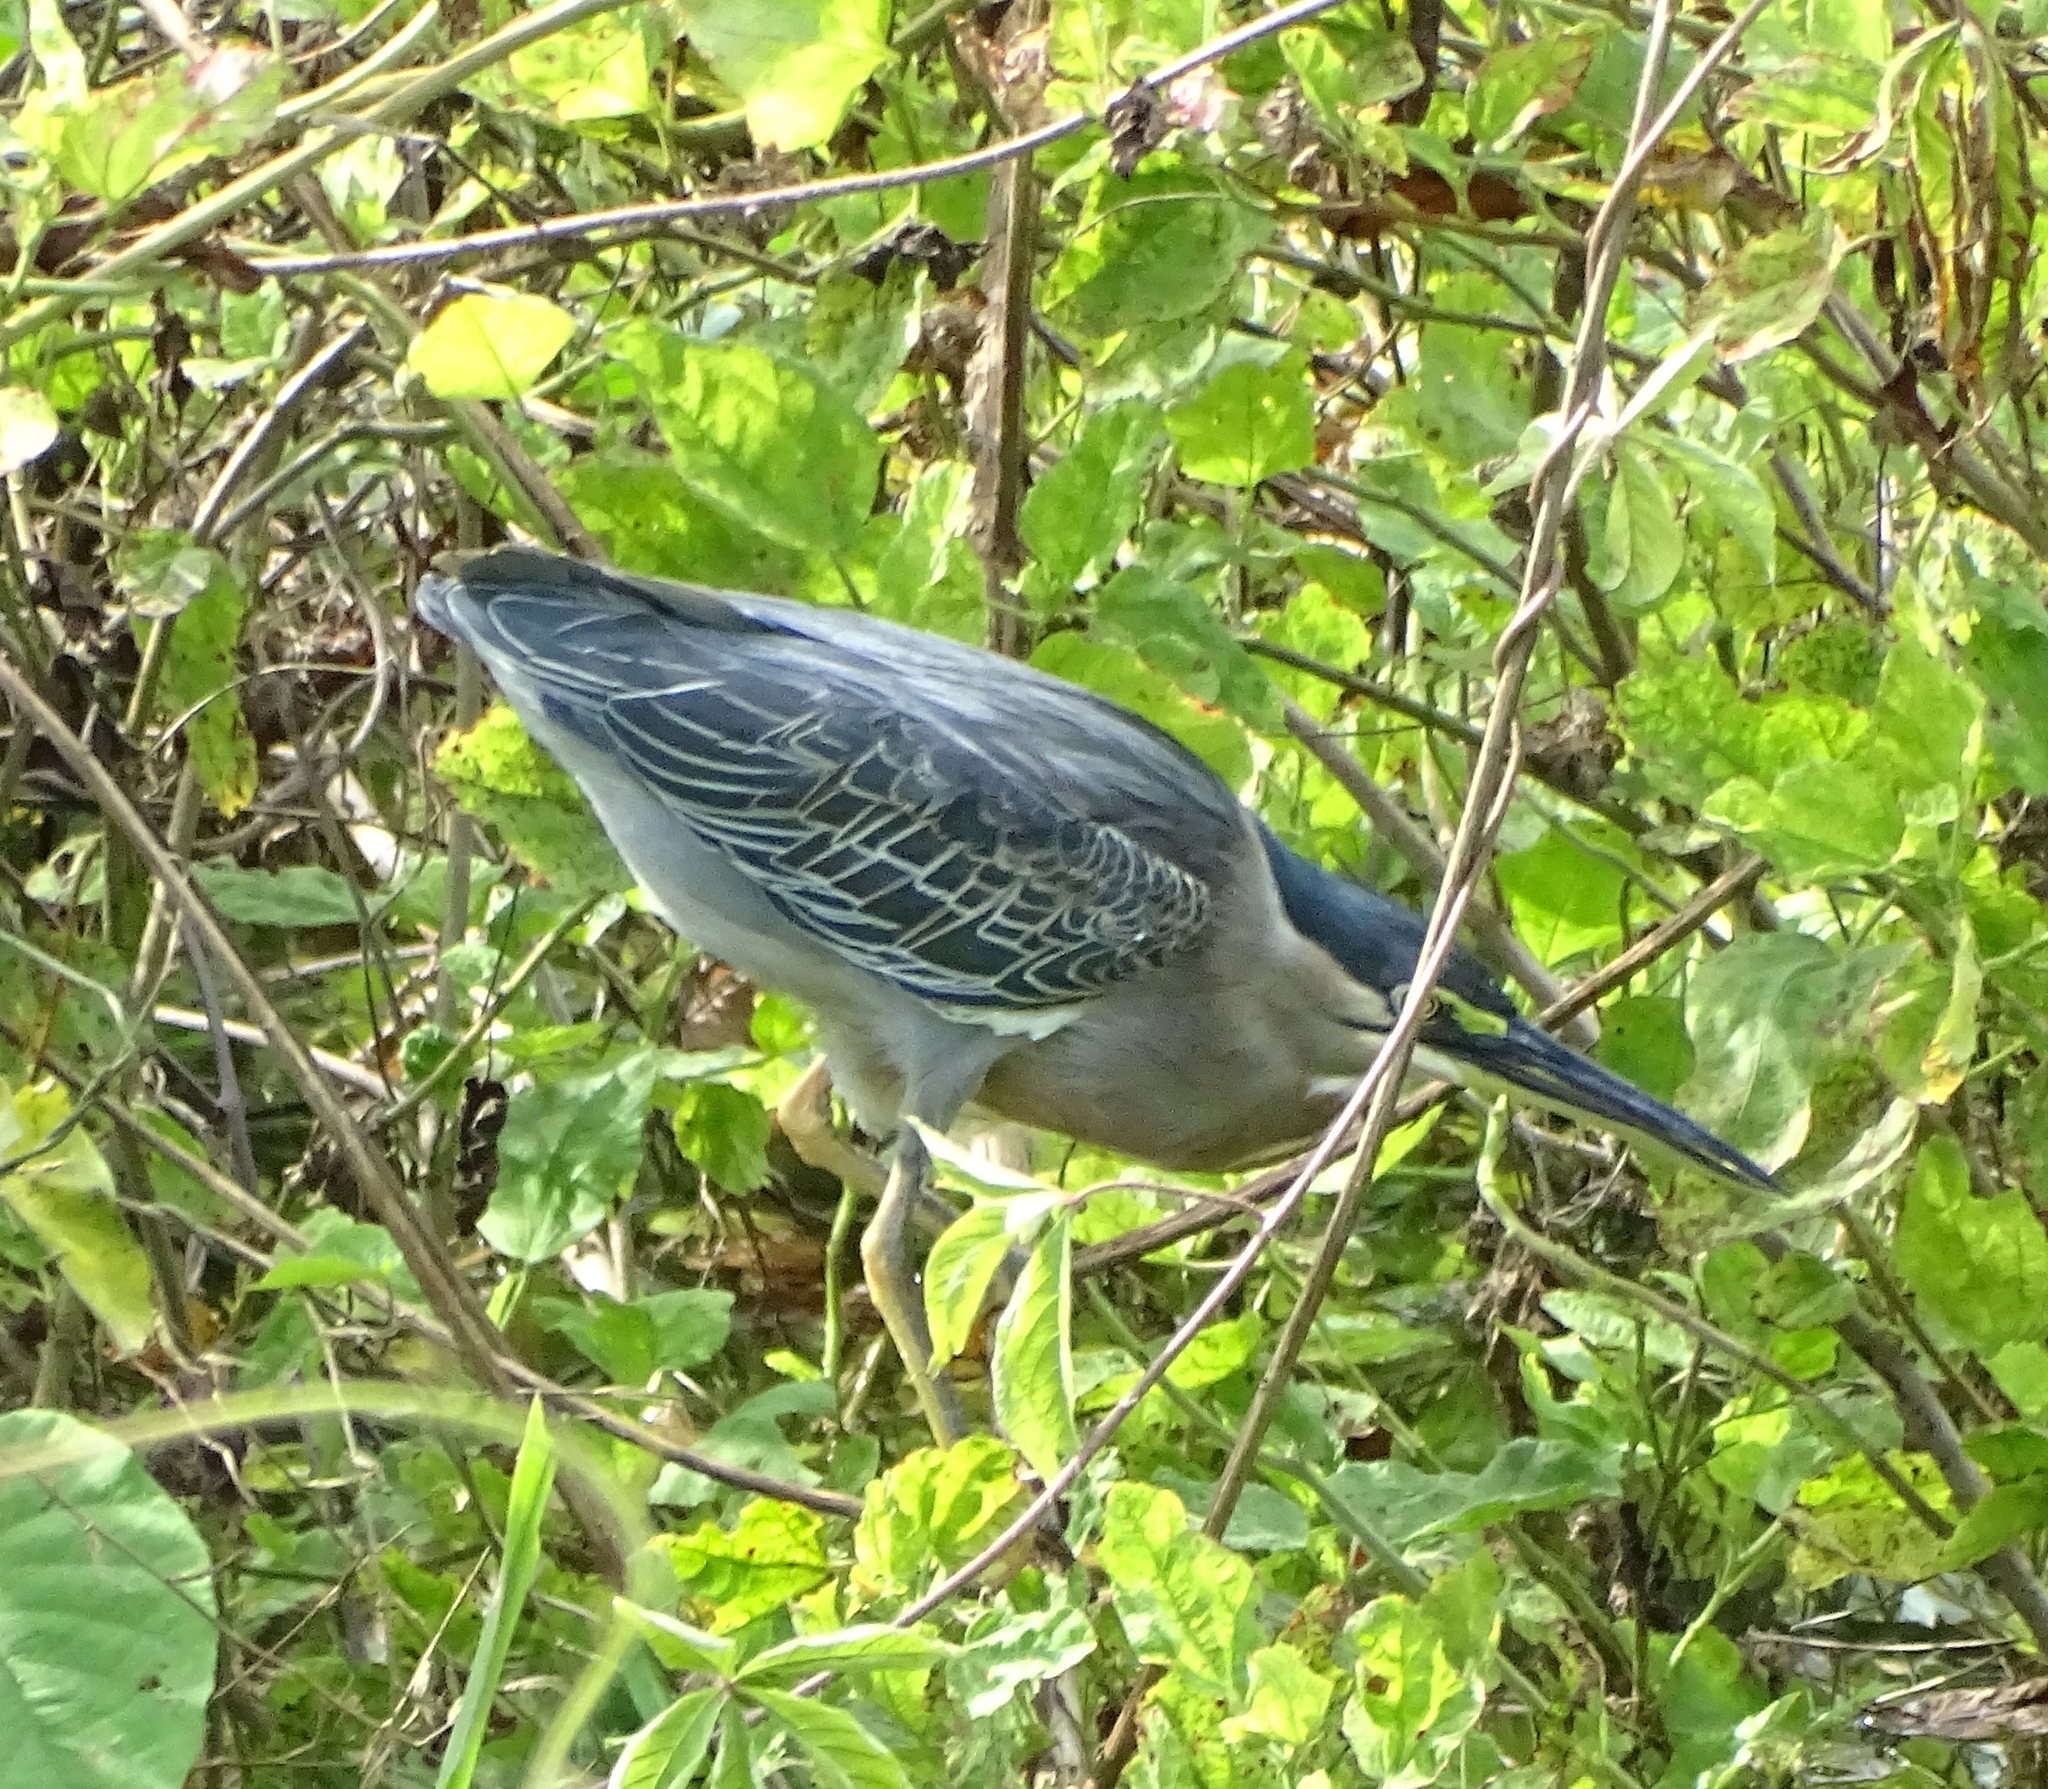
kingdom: Animalia
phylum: Chordata
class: Aves
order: Pelecaniformes
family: Ardeidae
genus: Butorides
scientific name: Butorides striata
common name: Striated heron
